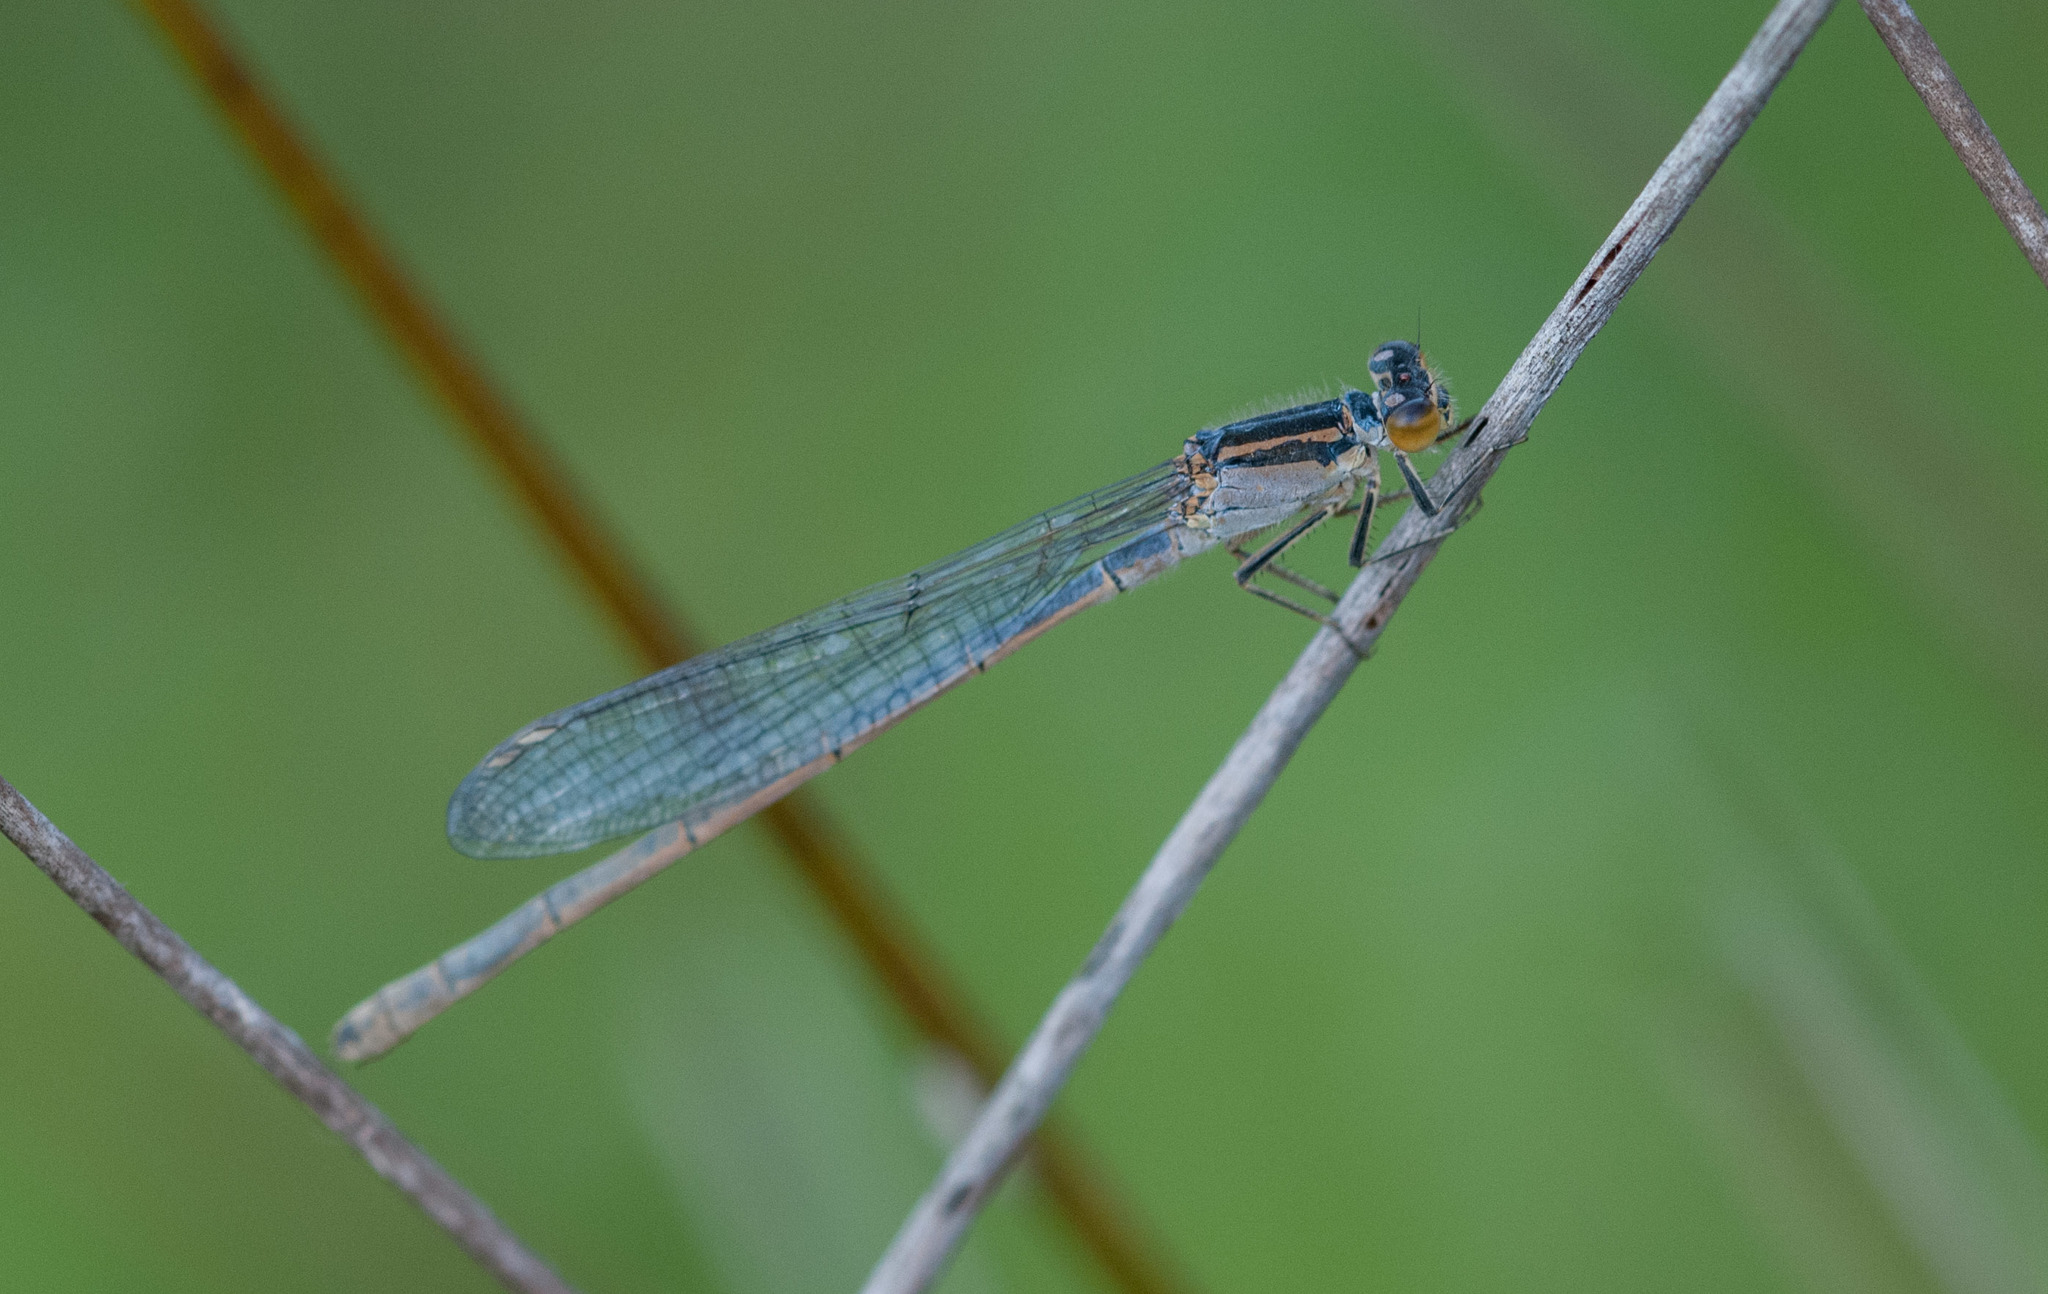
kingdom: Animalia
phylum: Arthropoda
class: Insecta
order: Odonata
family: Coenagrionidae
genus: Ischnura
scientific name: Ischnura heterosticta
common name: Common bluetail
